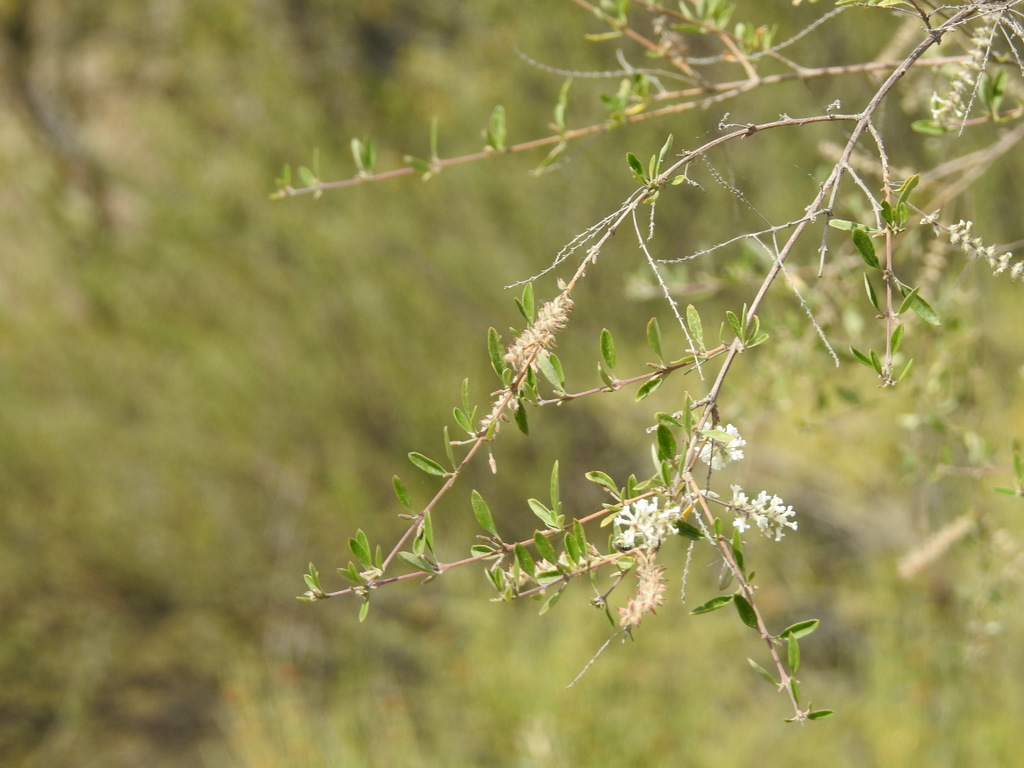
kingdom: Plantae
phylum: Tracheophyta
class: Magnoliopsida
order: Lamiales
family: Verbenaceae
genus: Aloysia
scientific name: Aloysia gratissima
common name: Common bee-brush
